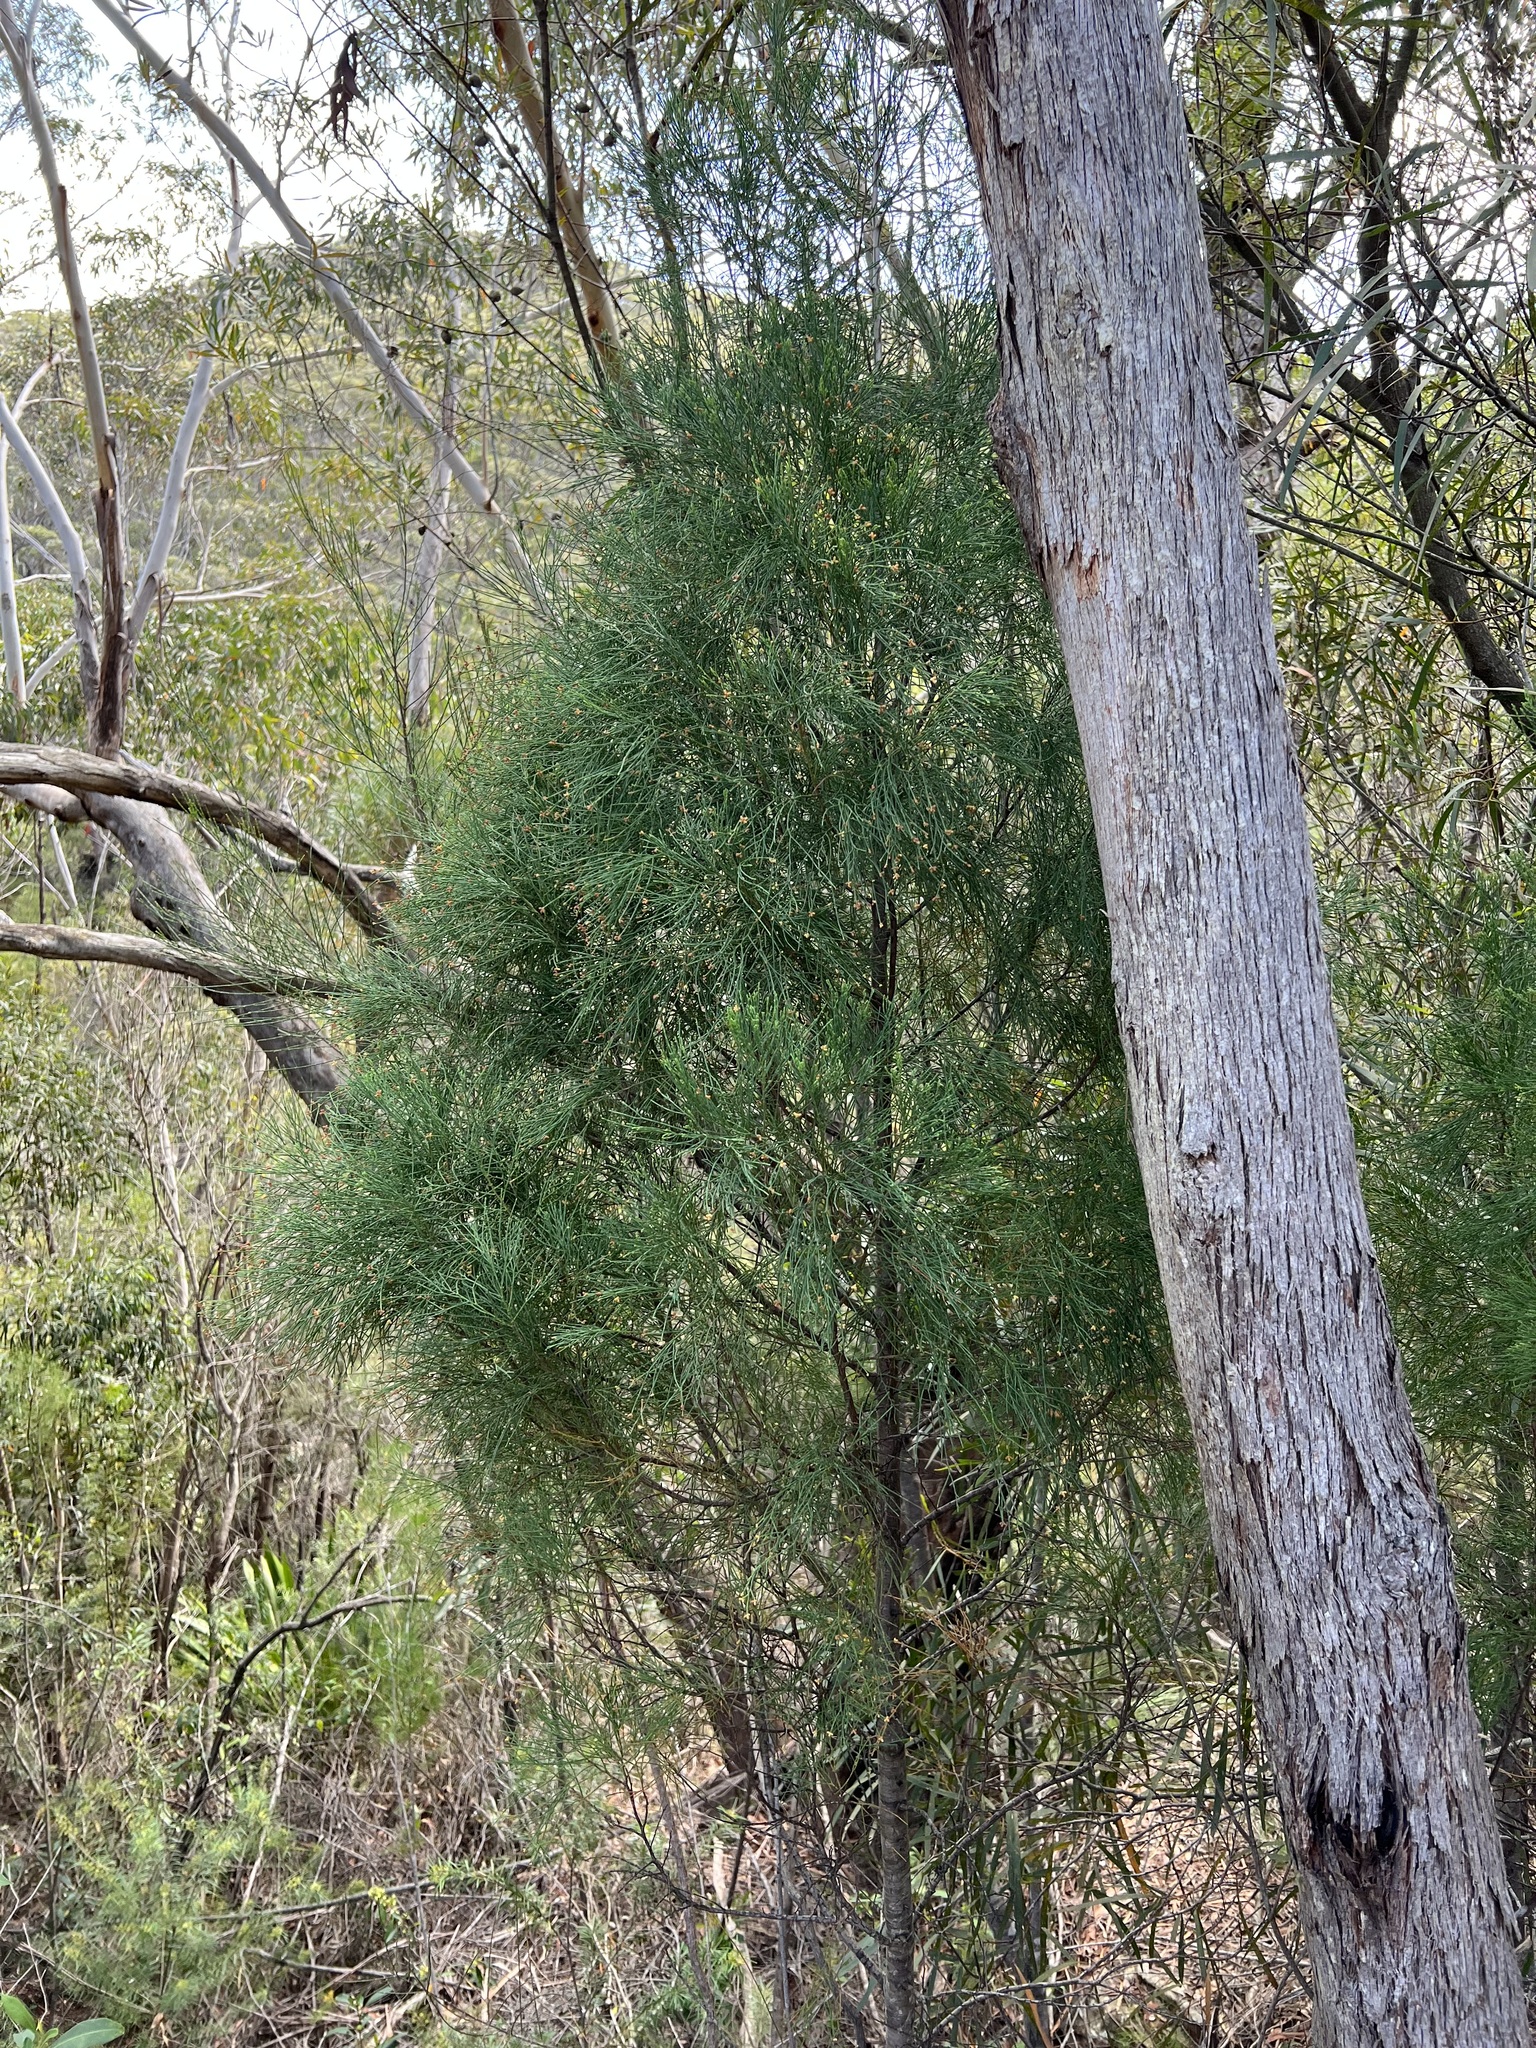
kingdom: Plantae
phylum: Tracheophyta
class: Pinopsida
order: Pinales
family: Cupressaceae
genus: Callitris
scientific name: Callitris muelleri
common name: Illawarra cypress-pine
